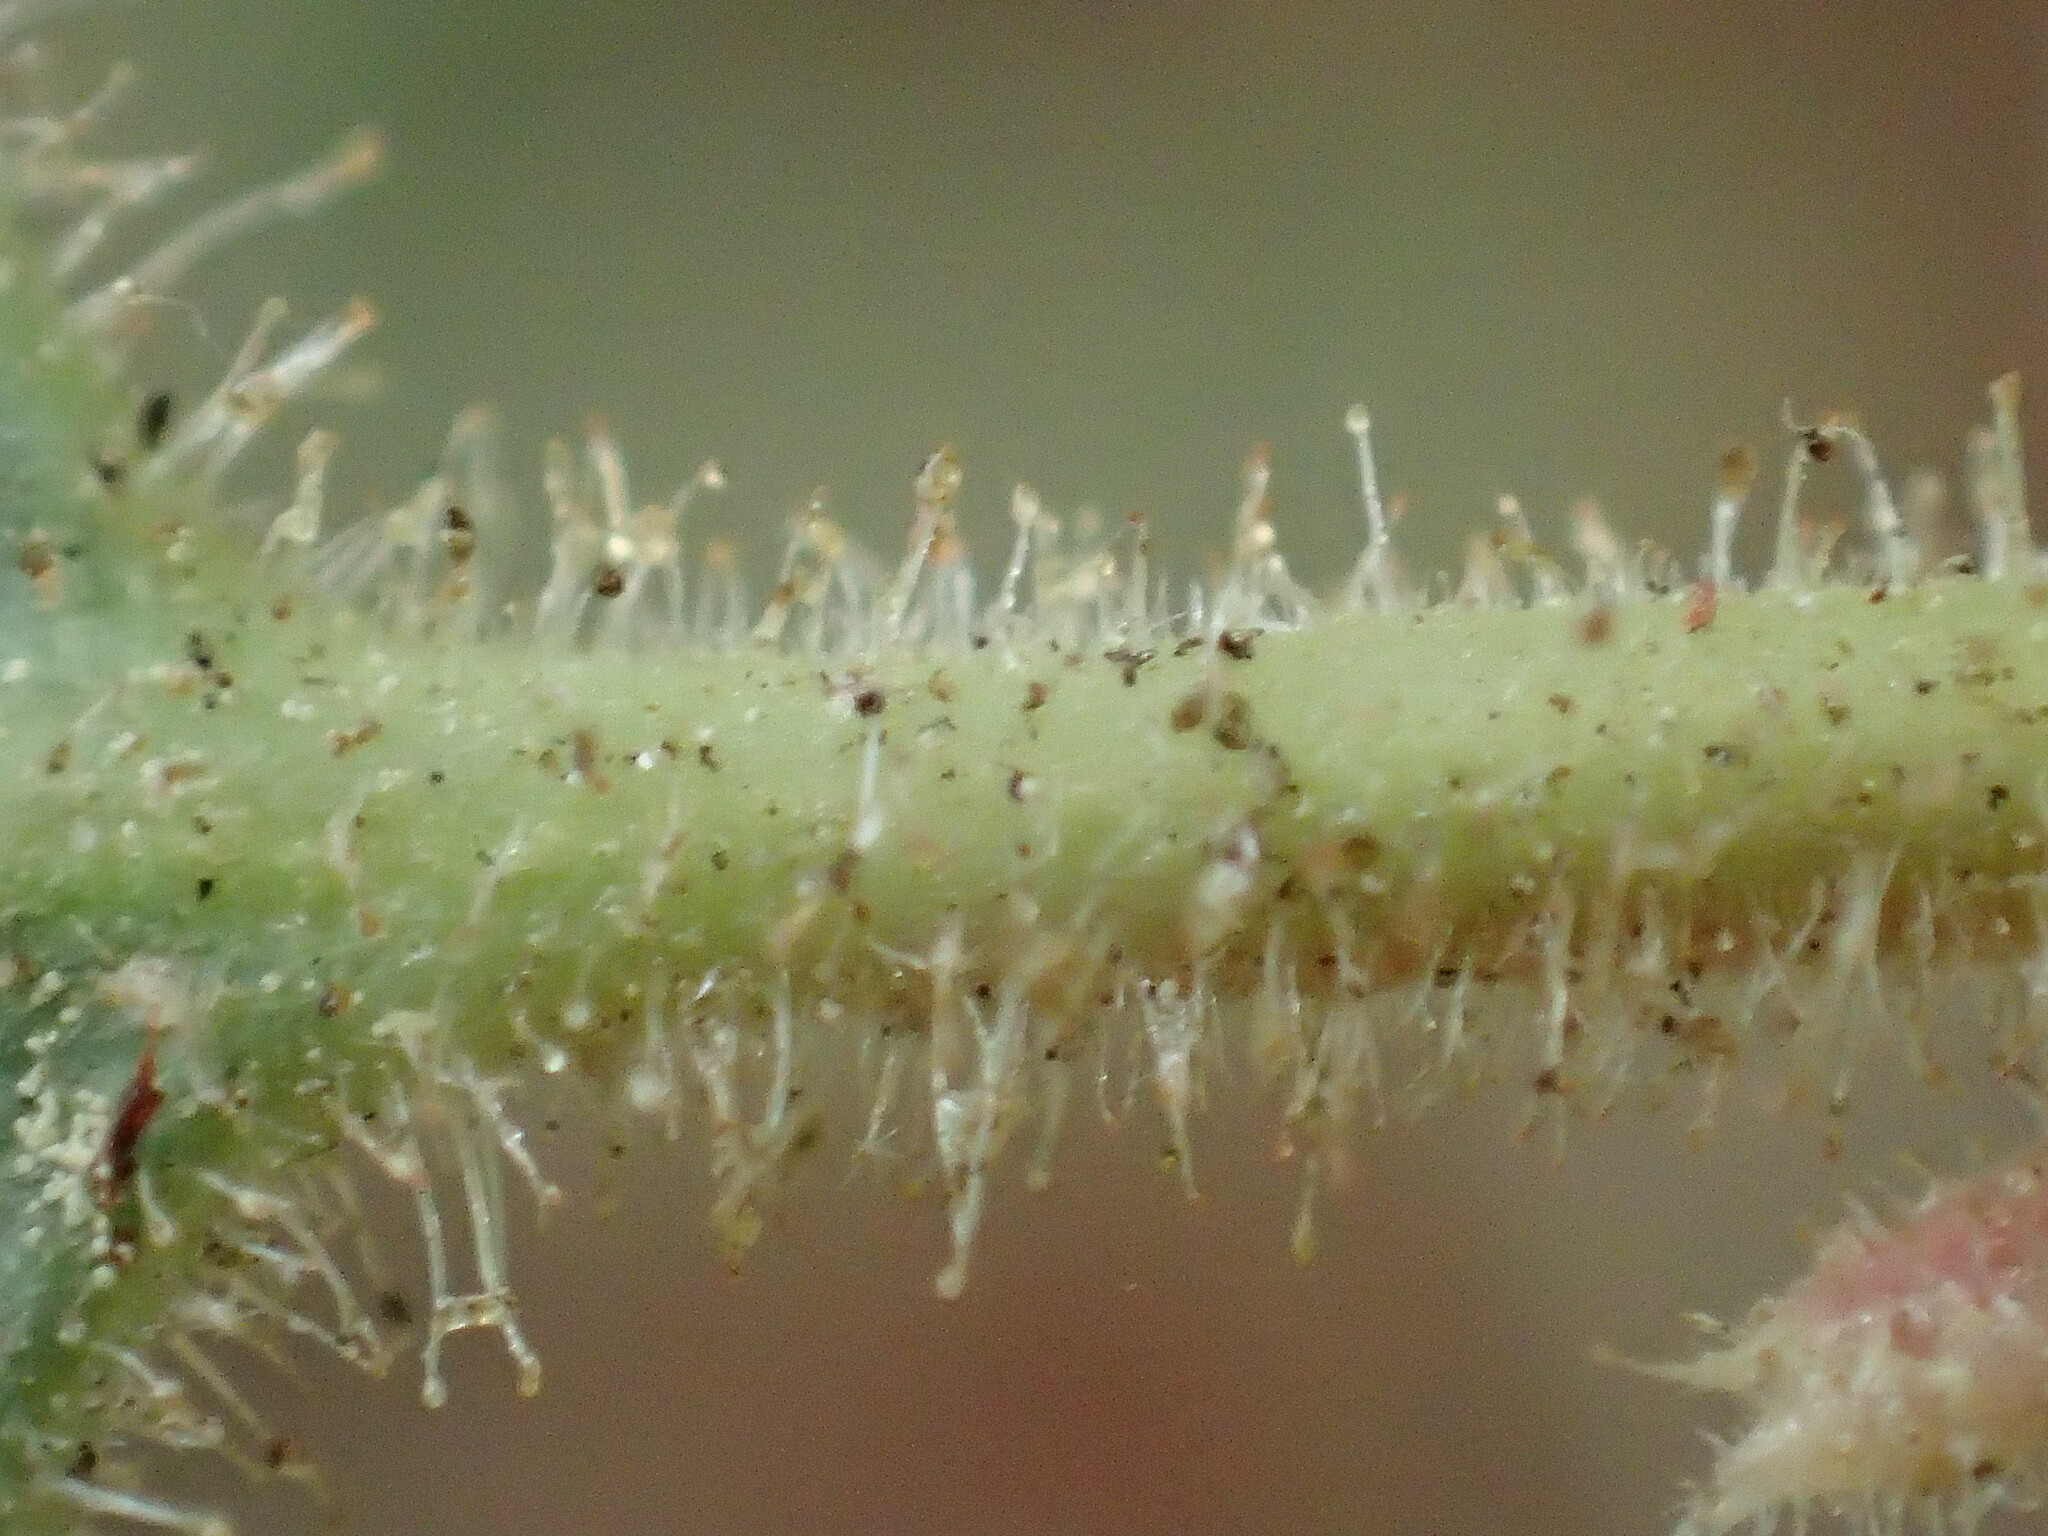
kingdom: Plantae
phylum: Tracheophyta
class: Magnoliopsida
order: Ericales
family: Ericaceae
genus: Arctostaphylos
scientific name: Arctostaphylos pringlei
